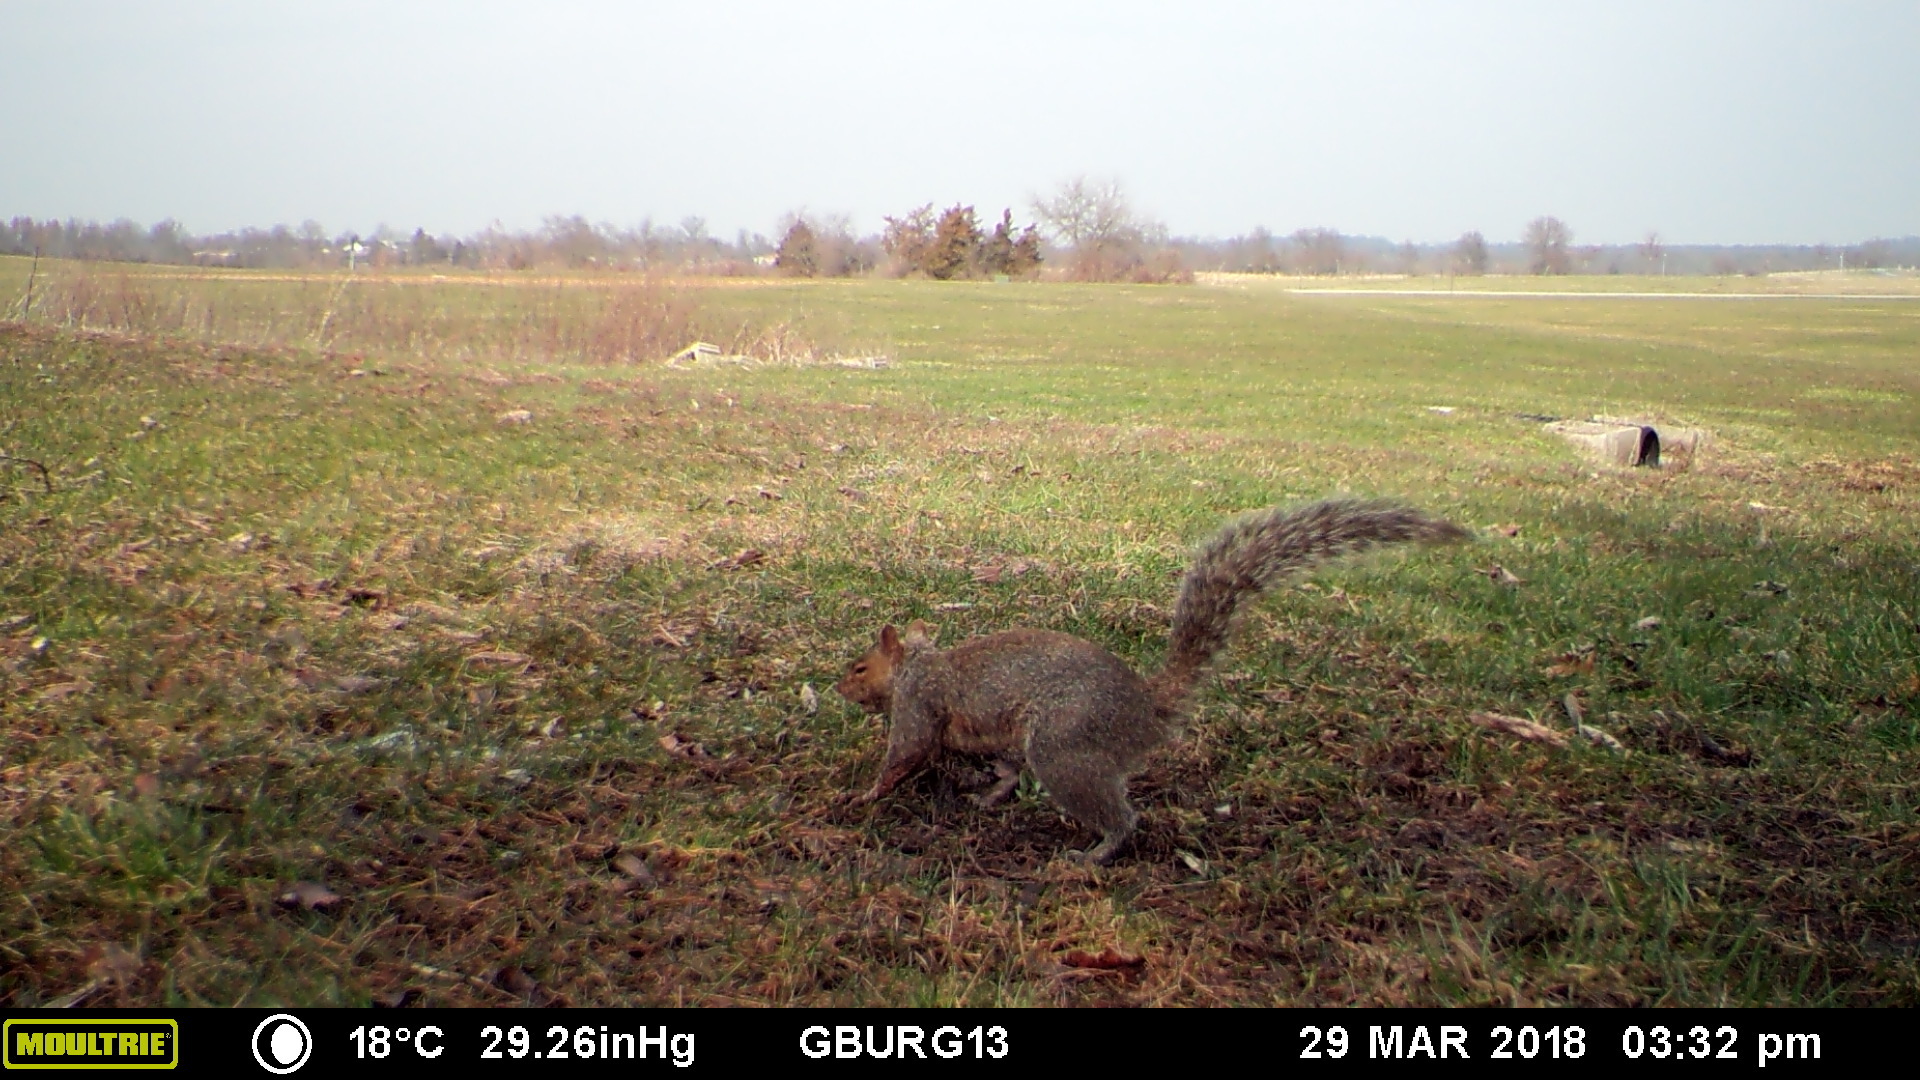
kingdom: Animalia
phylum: Chordata
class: Mammalia
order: Rodentia
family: Sciuridae
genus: Sciurus
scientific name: Sciurus carolinensis
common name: Eastern gray squirrel
